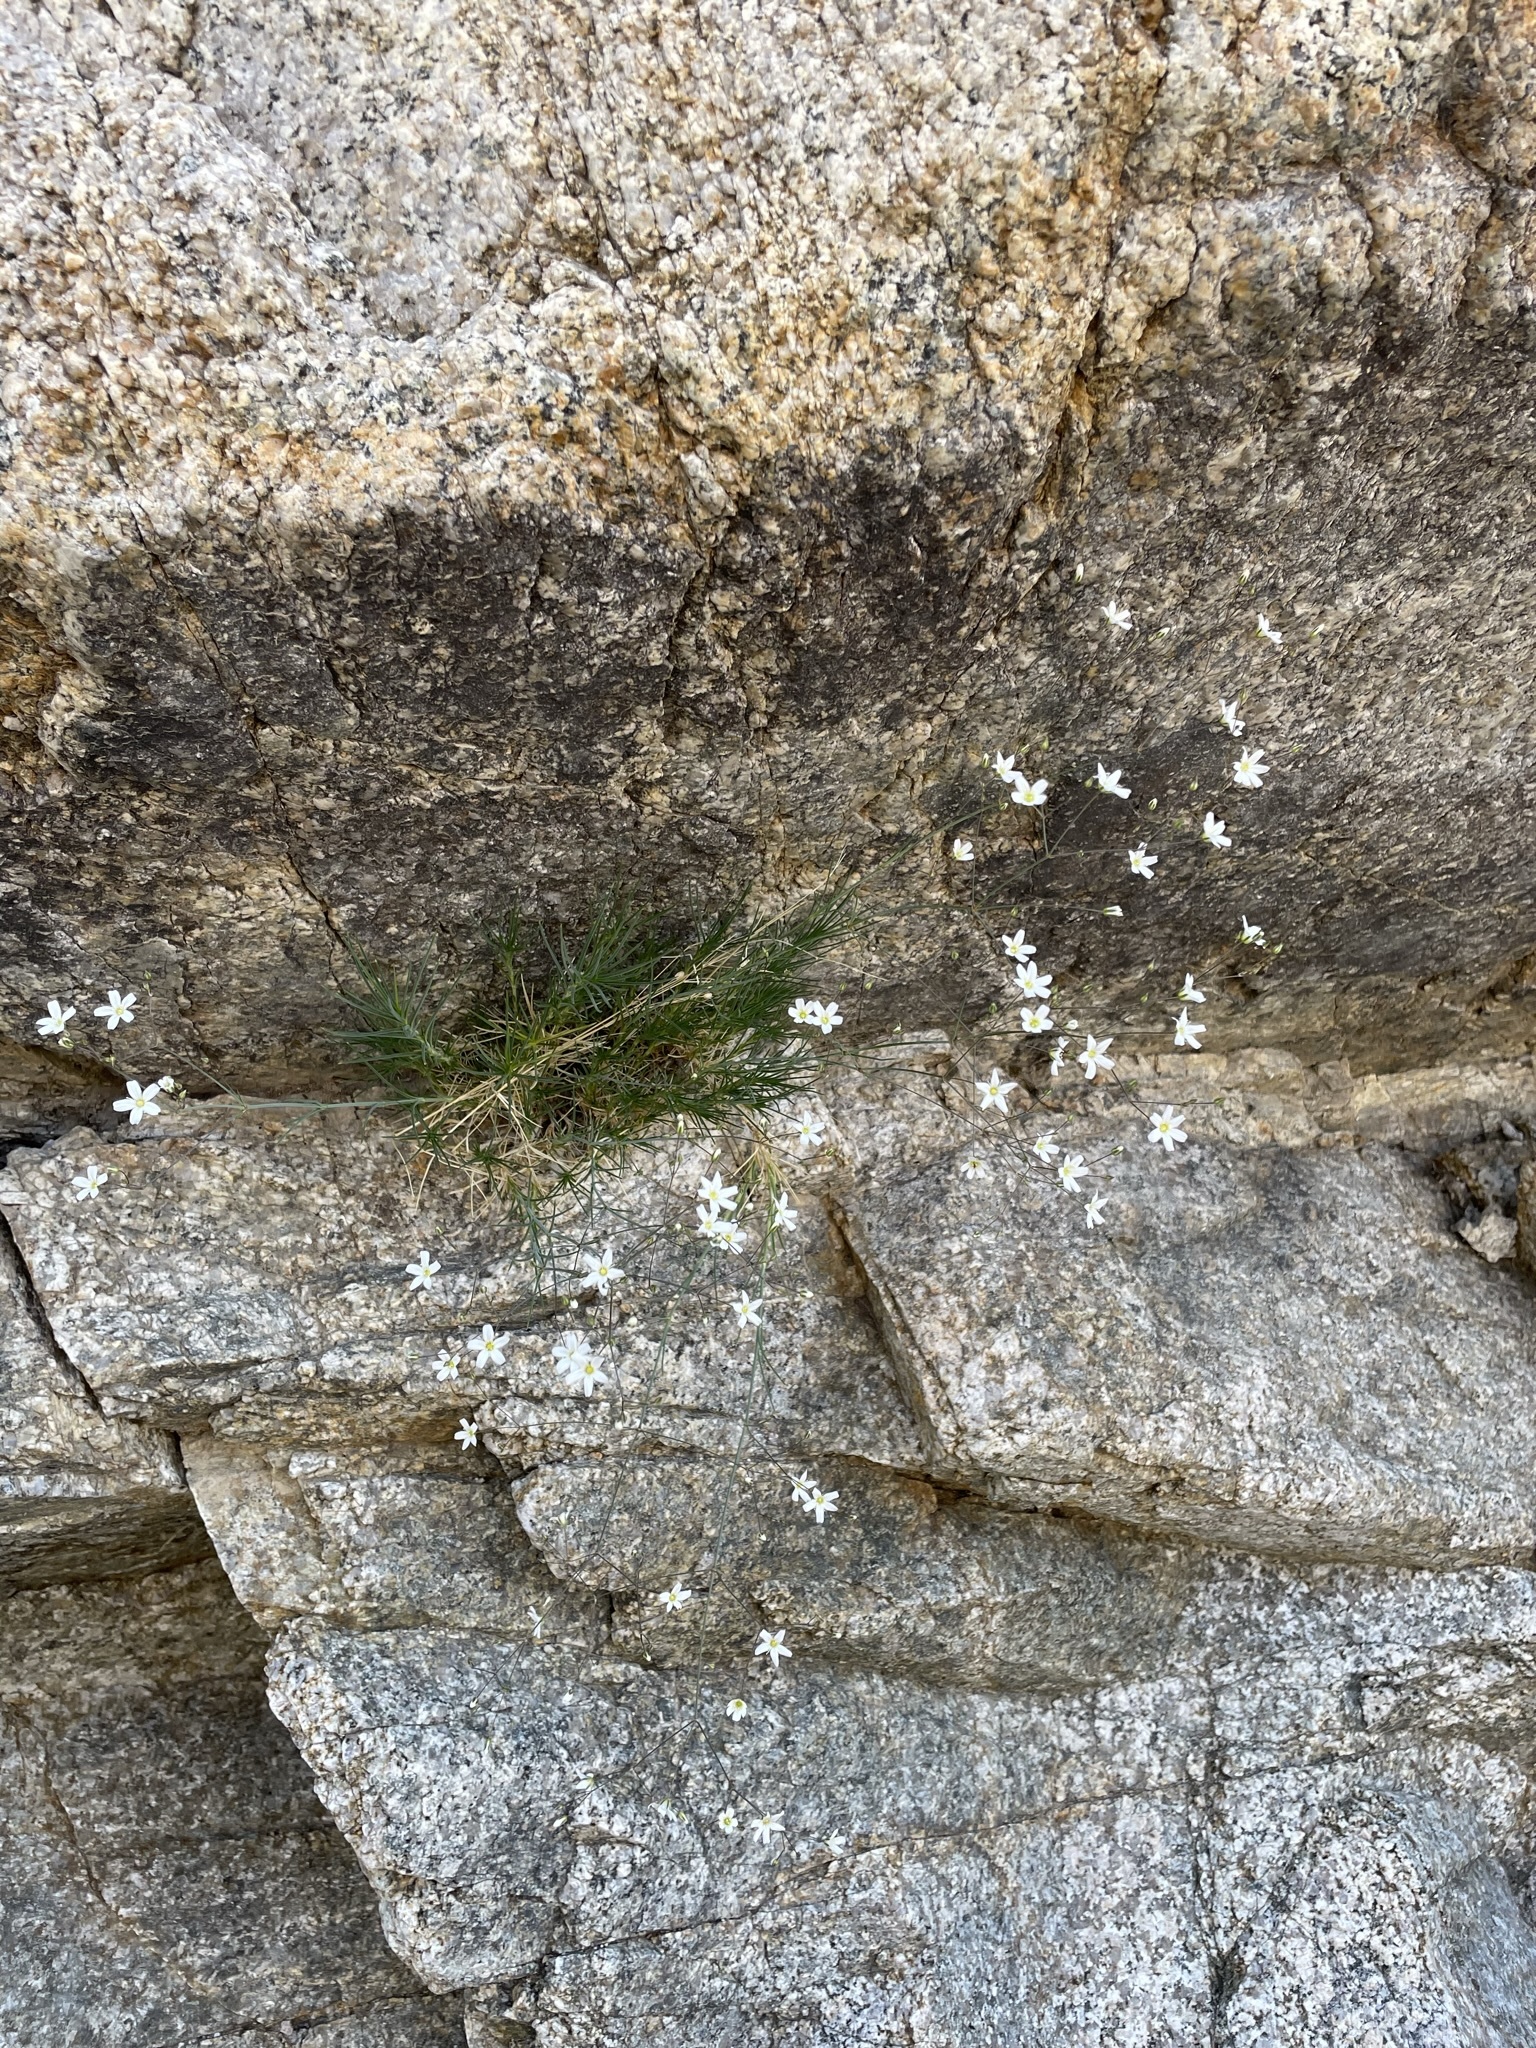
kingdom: Plantae
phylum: Tracheophyta
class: Magnoliopsida
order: Caryophyllales
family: Caryophyllaceae
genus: Eremogone
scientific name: Eremogone ferrisiae
